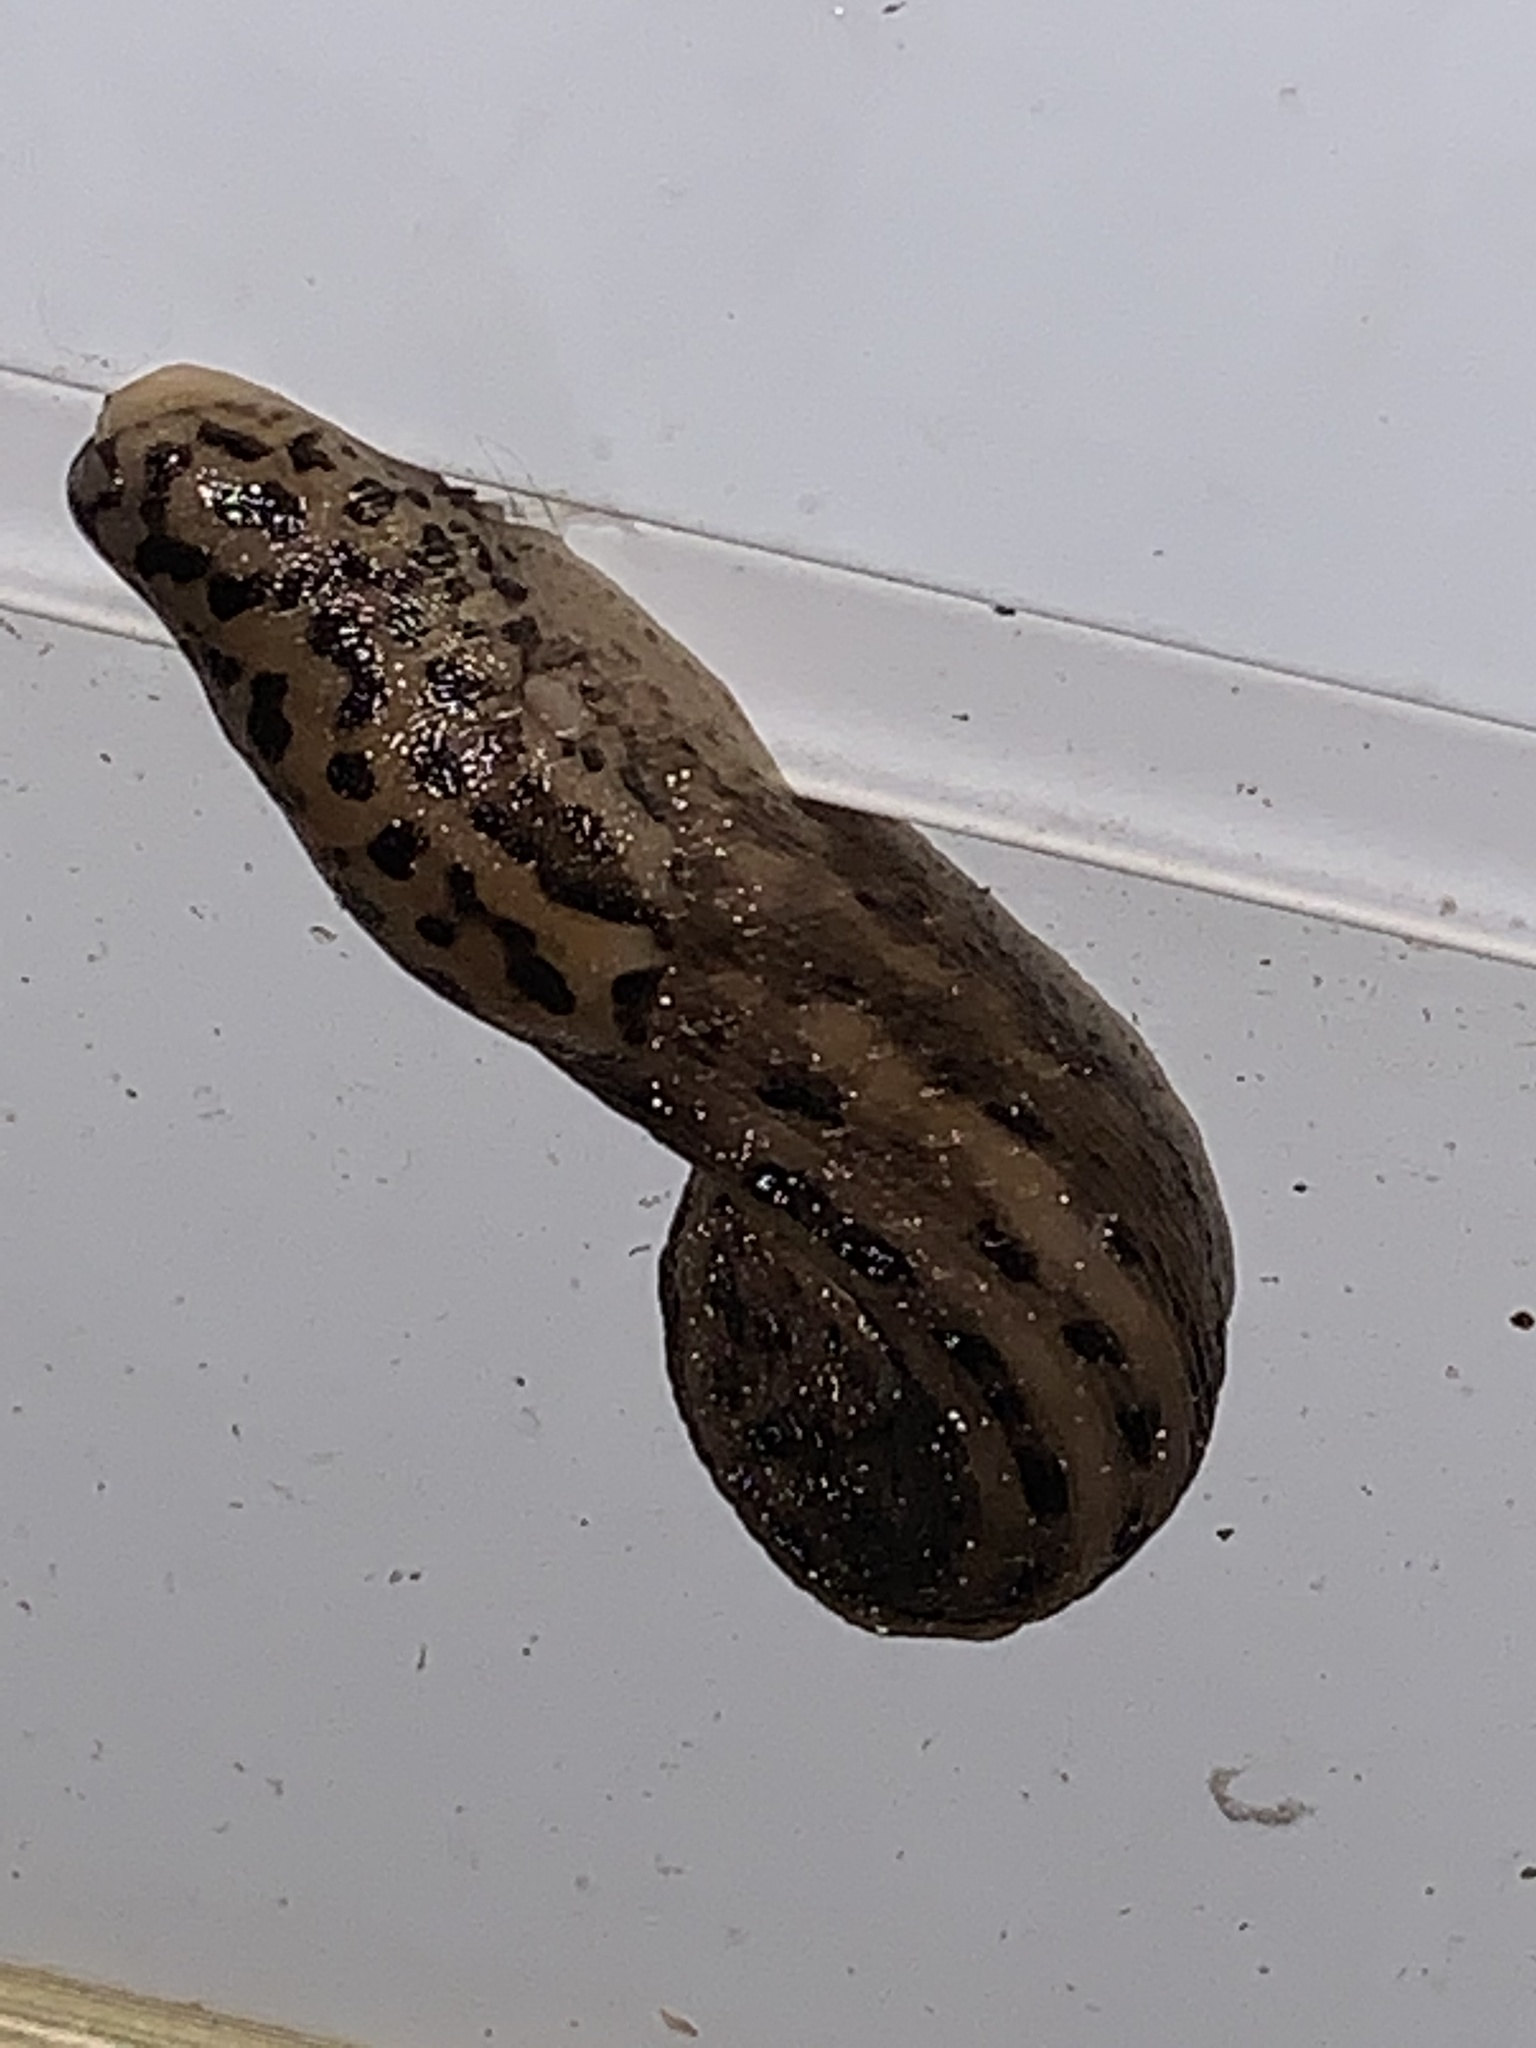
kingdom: Animalia
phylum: Mollusca
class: Gastropoda
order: Stylommatophora
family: Limacidae
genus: Limax
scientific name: Limax maximus
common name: Great grey slug
